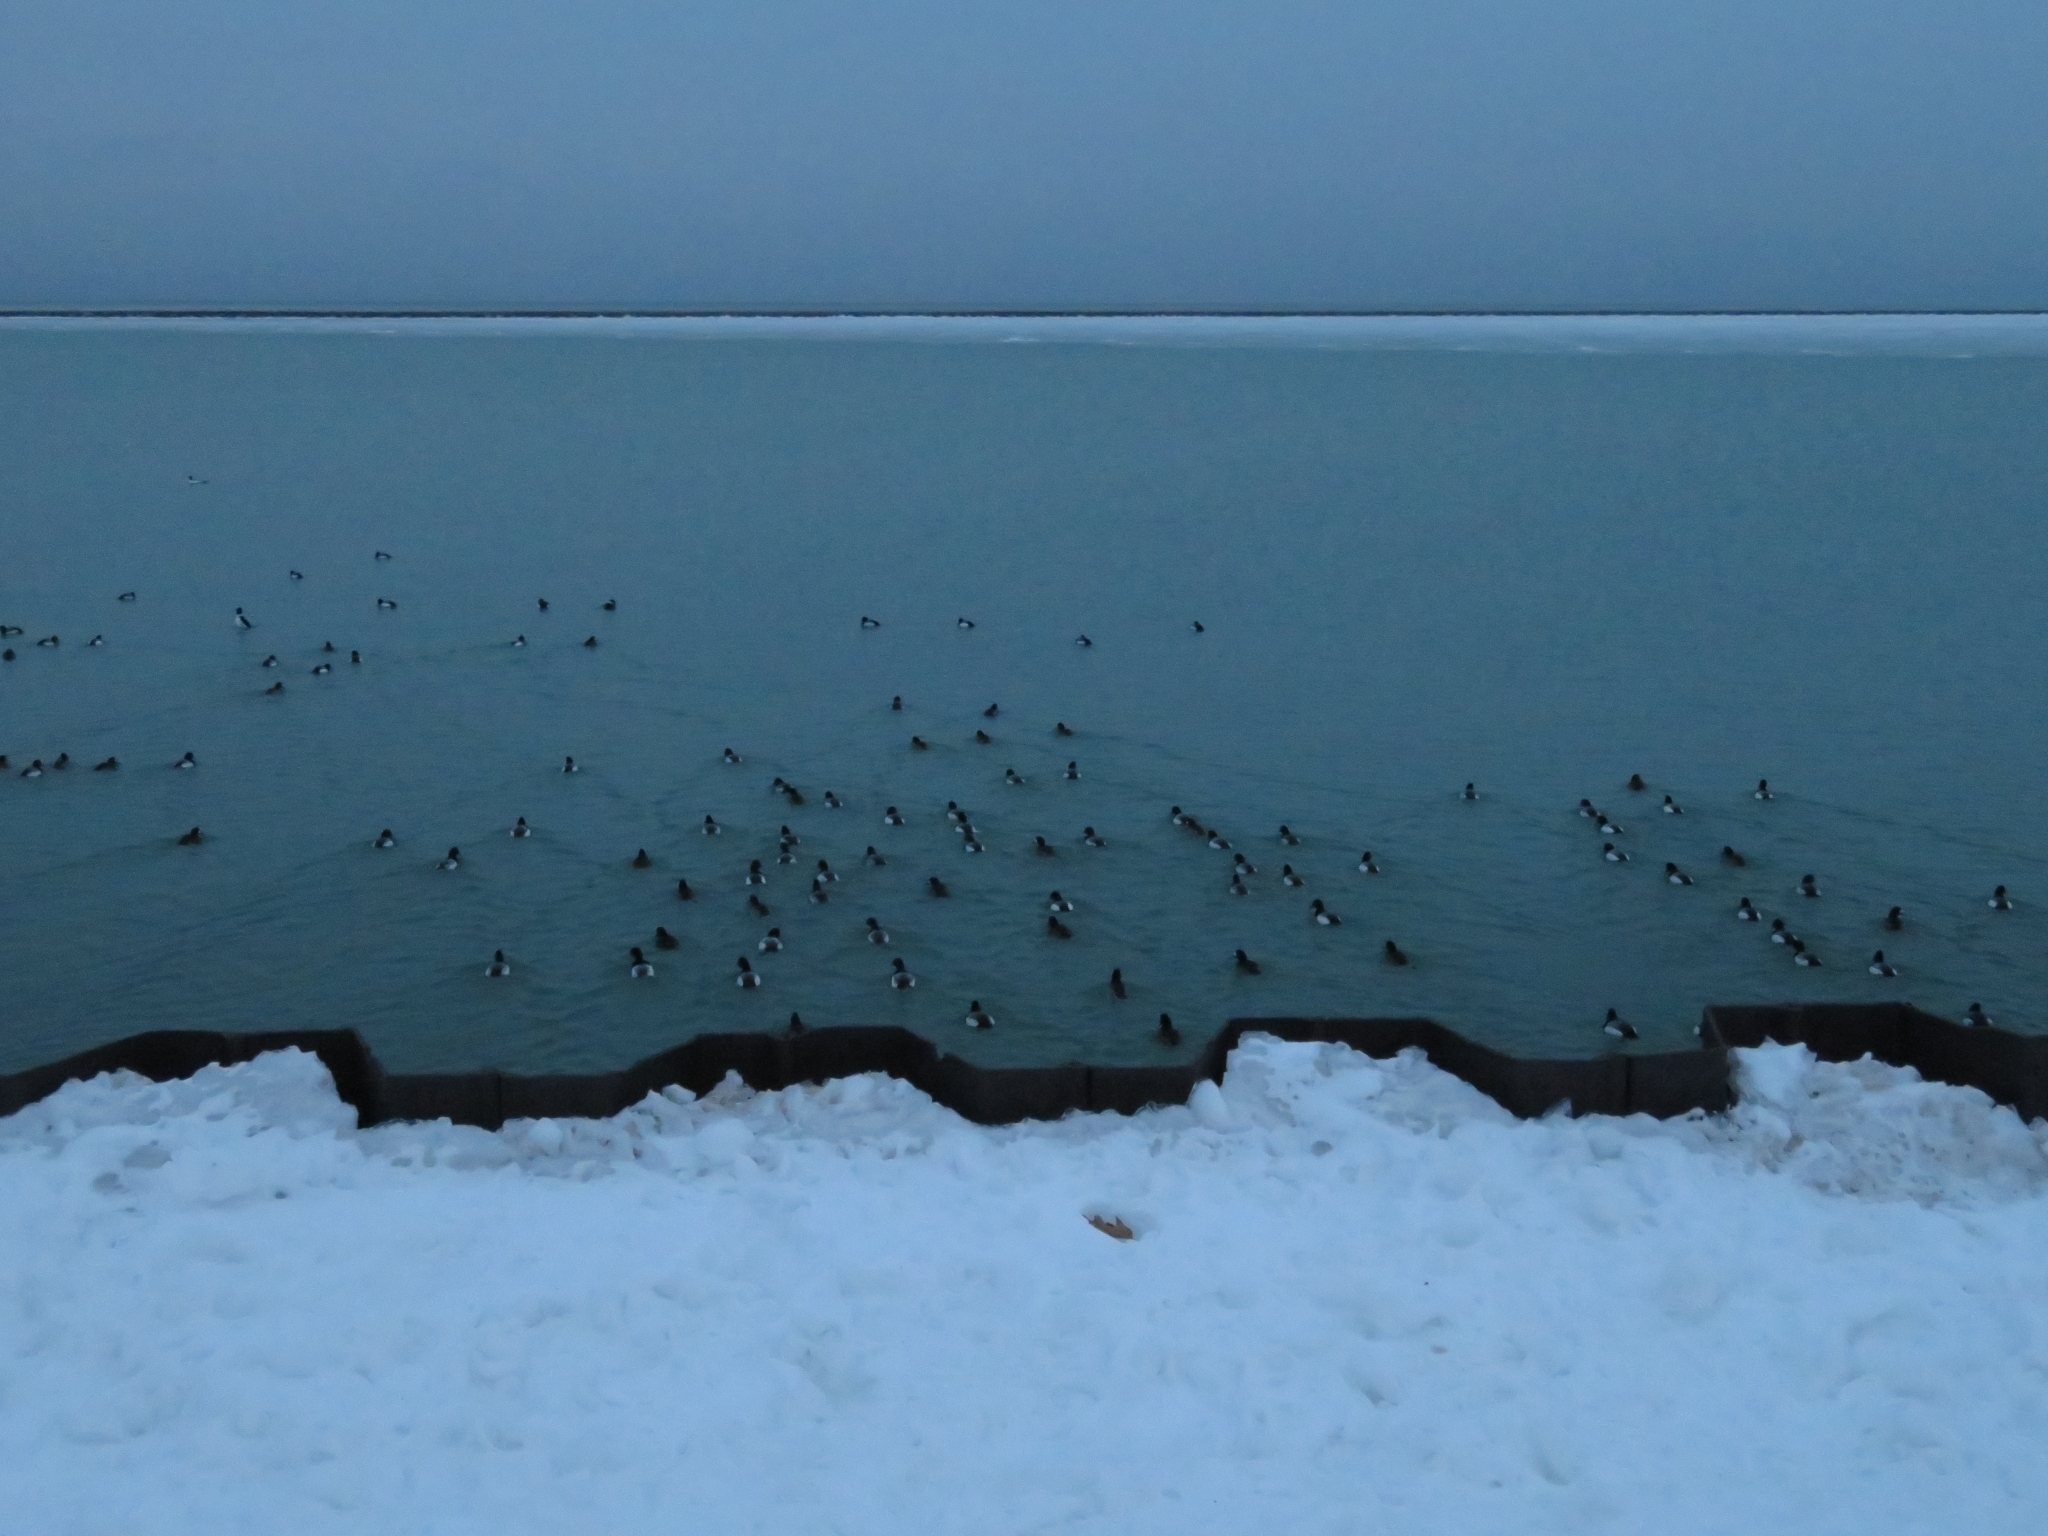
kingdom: Animalia
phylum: Chordata
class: Aves
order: Anseriformes
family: Anatidae
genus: Aythya
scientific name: Aythya marila
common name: Greater scaup
